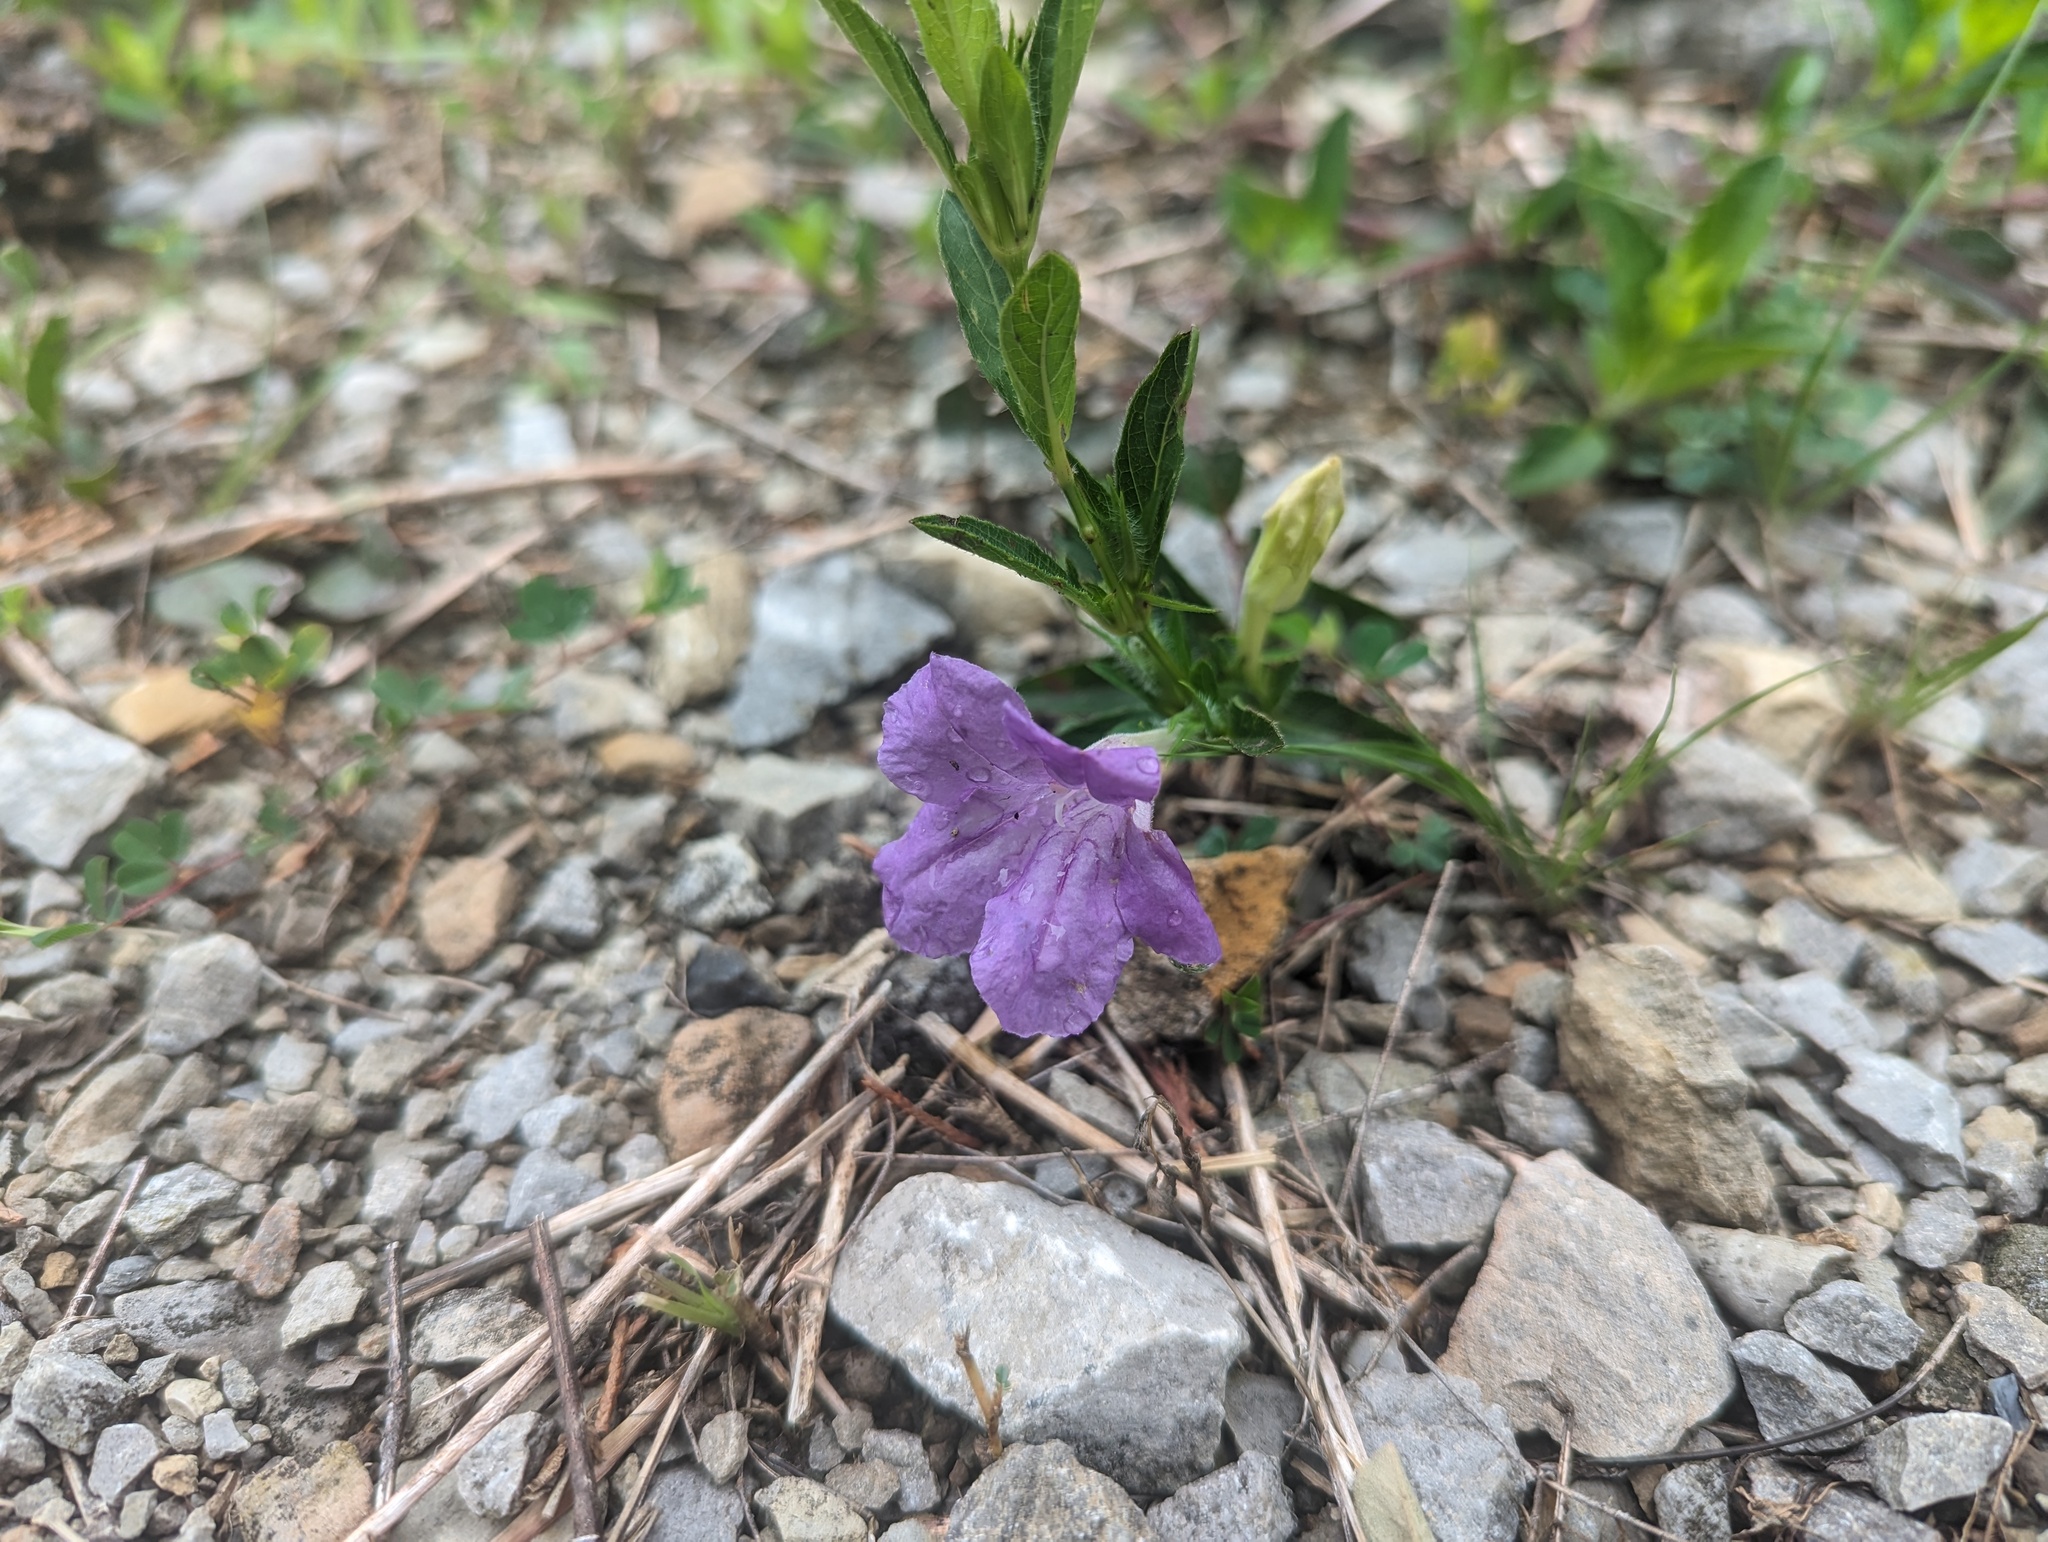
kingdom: Plantae
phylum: Tracheophyta
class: Magnoliopsida
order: Lamiales
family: Acanthaceae
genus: Ruellia
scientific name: Ruellia humilis
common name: Fringe-leaf ruellia
